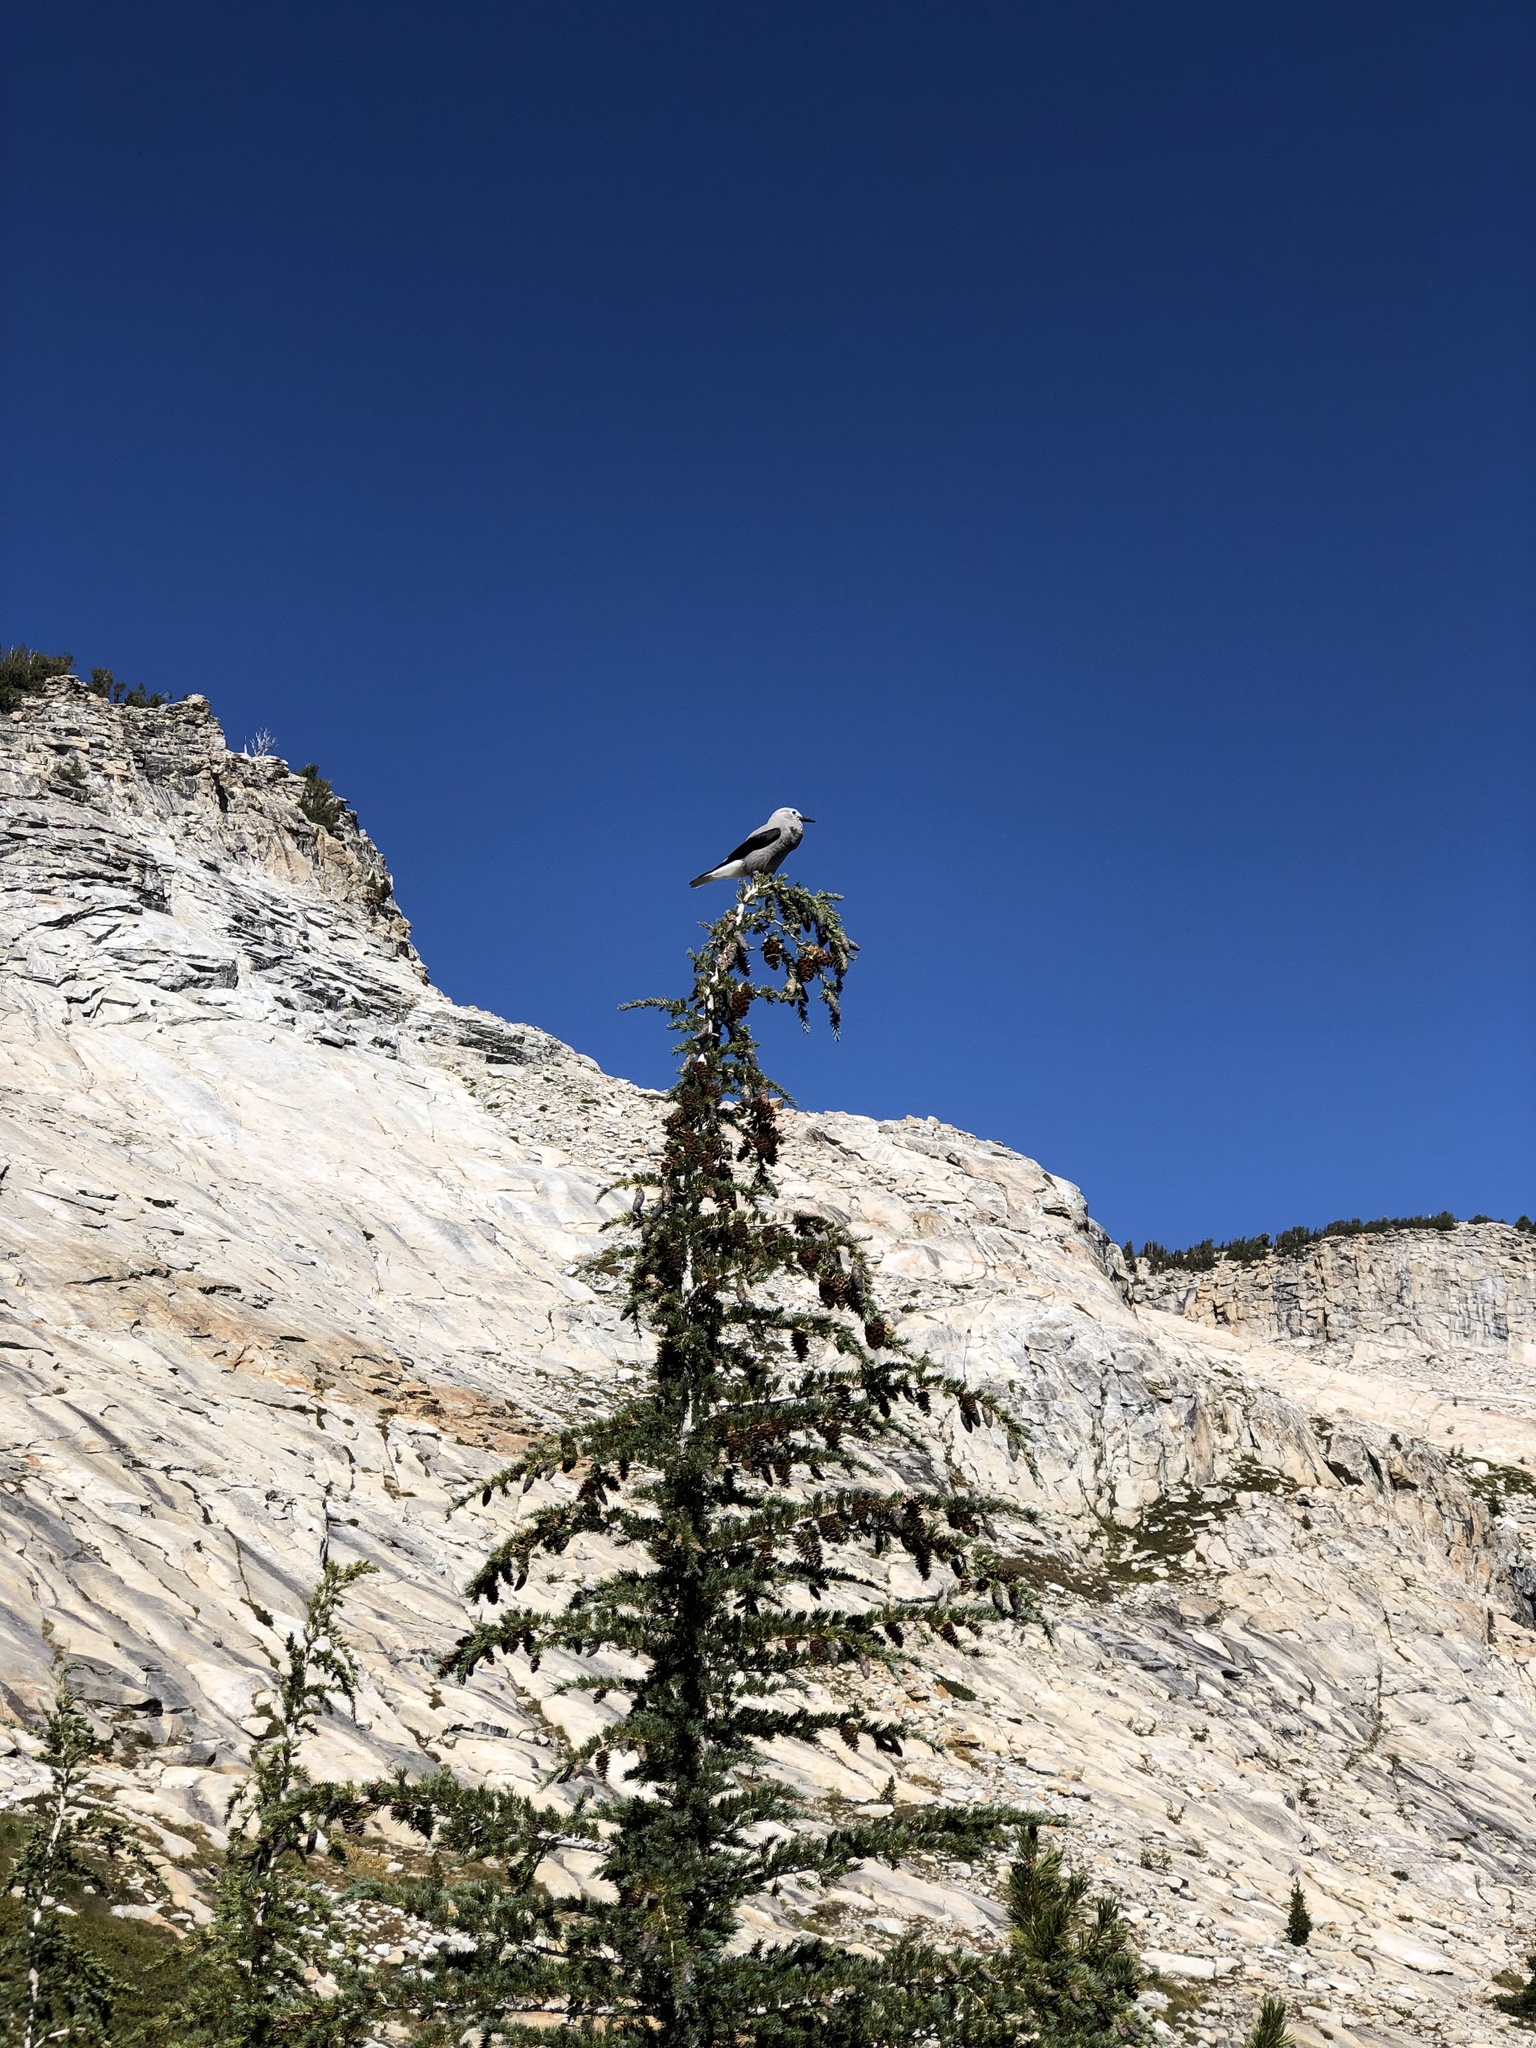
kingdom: Animalia
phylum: Chordata
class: Aves
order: Passeriformes
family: Corvidae
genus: Nucifraga
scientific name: Nucifraga columbiana
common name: Clark's nutcracker
